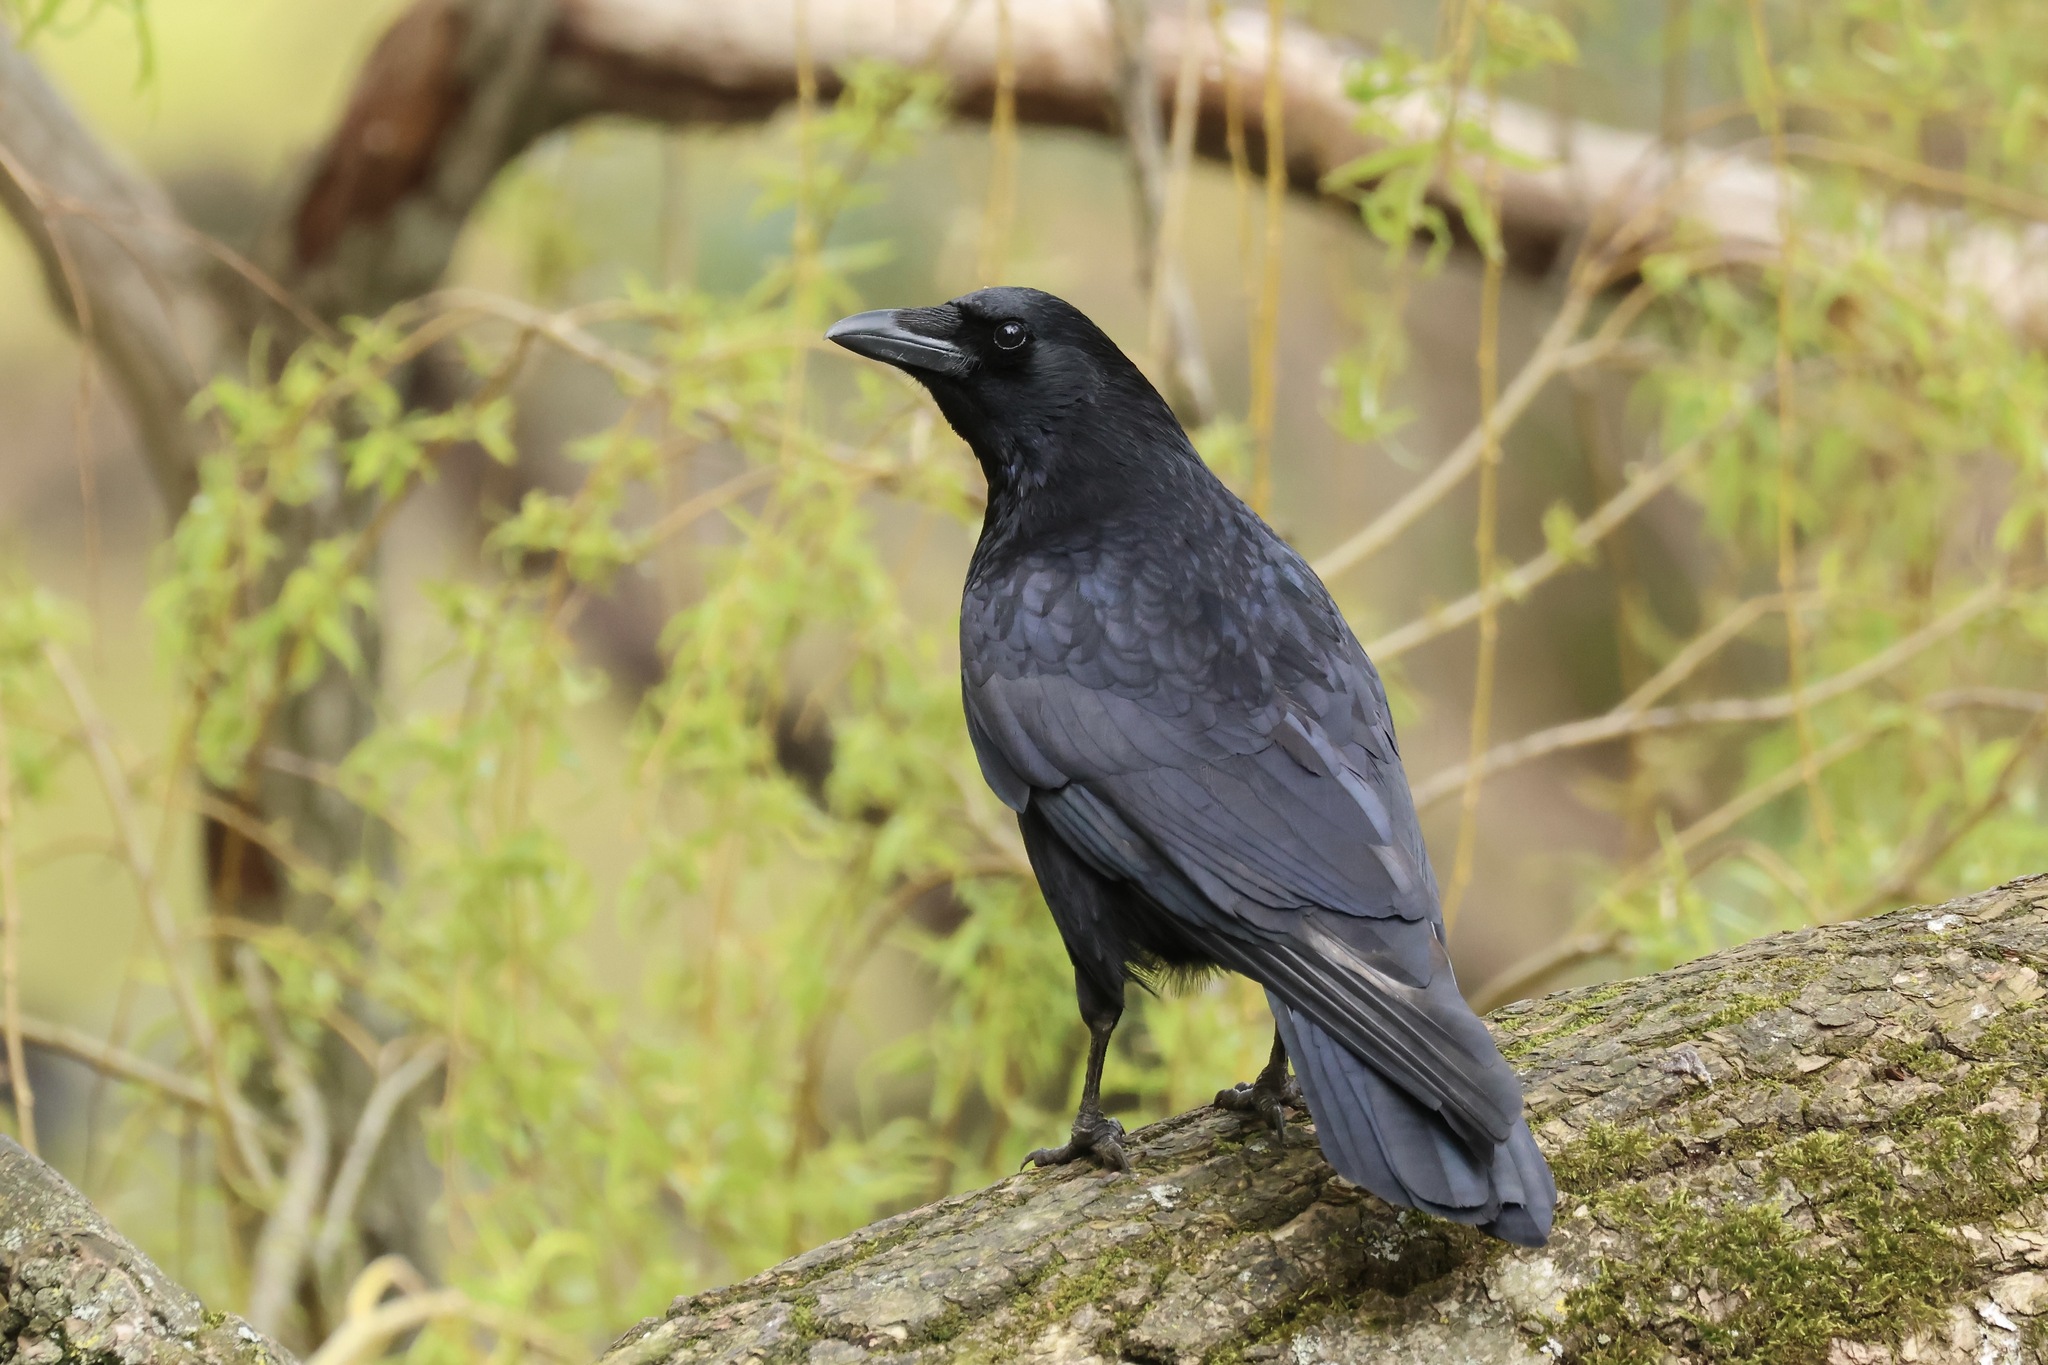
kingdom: Animalia
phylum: Chordata
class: Aves
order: Passeriformes
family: Corvidae
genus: Corvus
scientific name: Corvus corone
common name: Carrion crow
